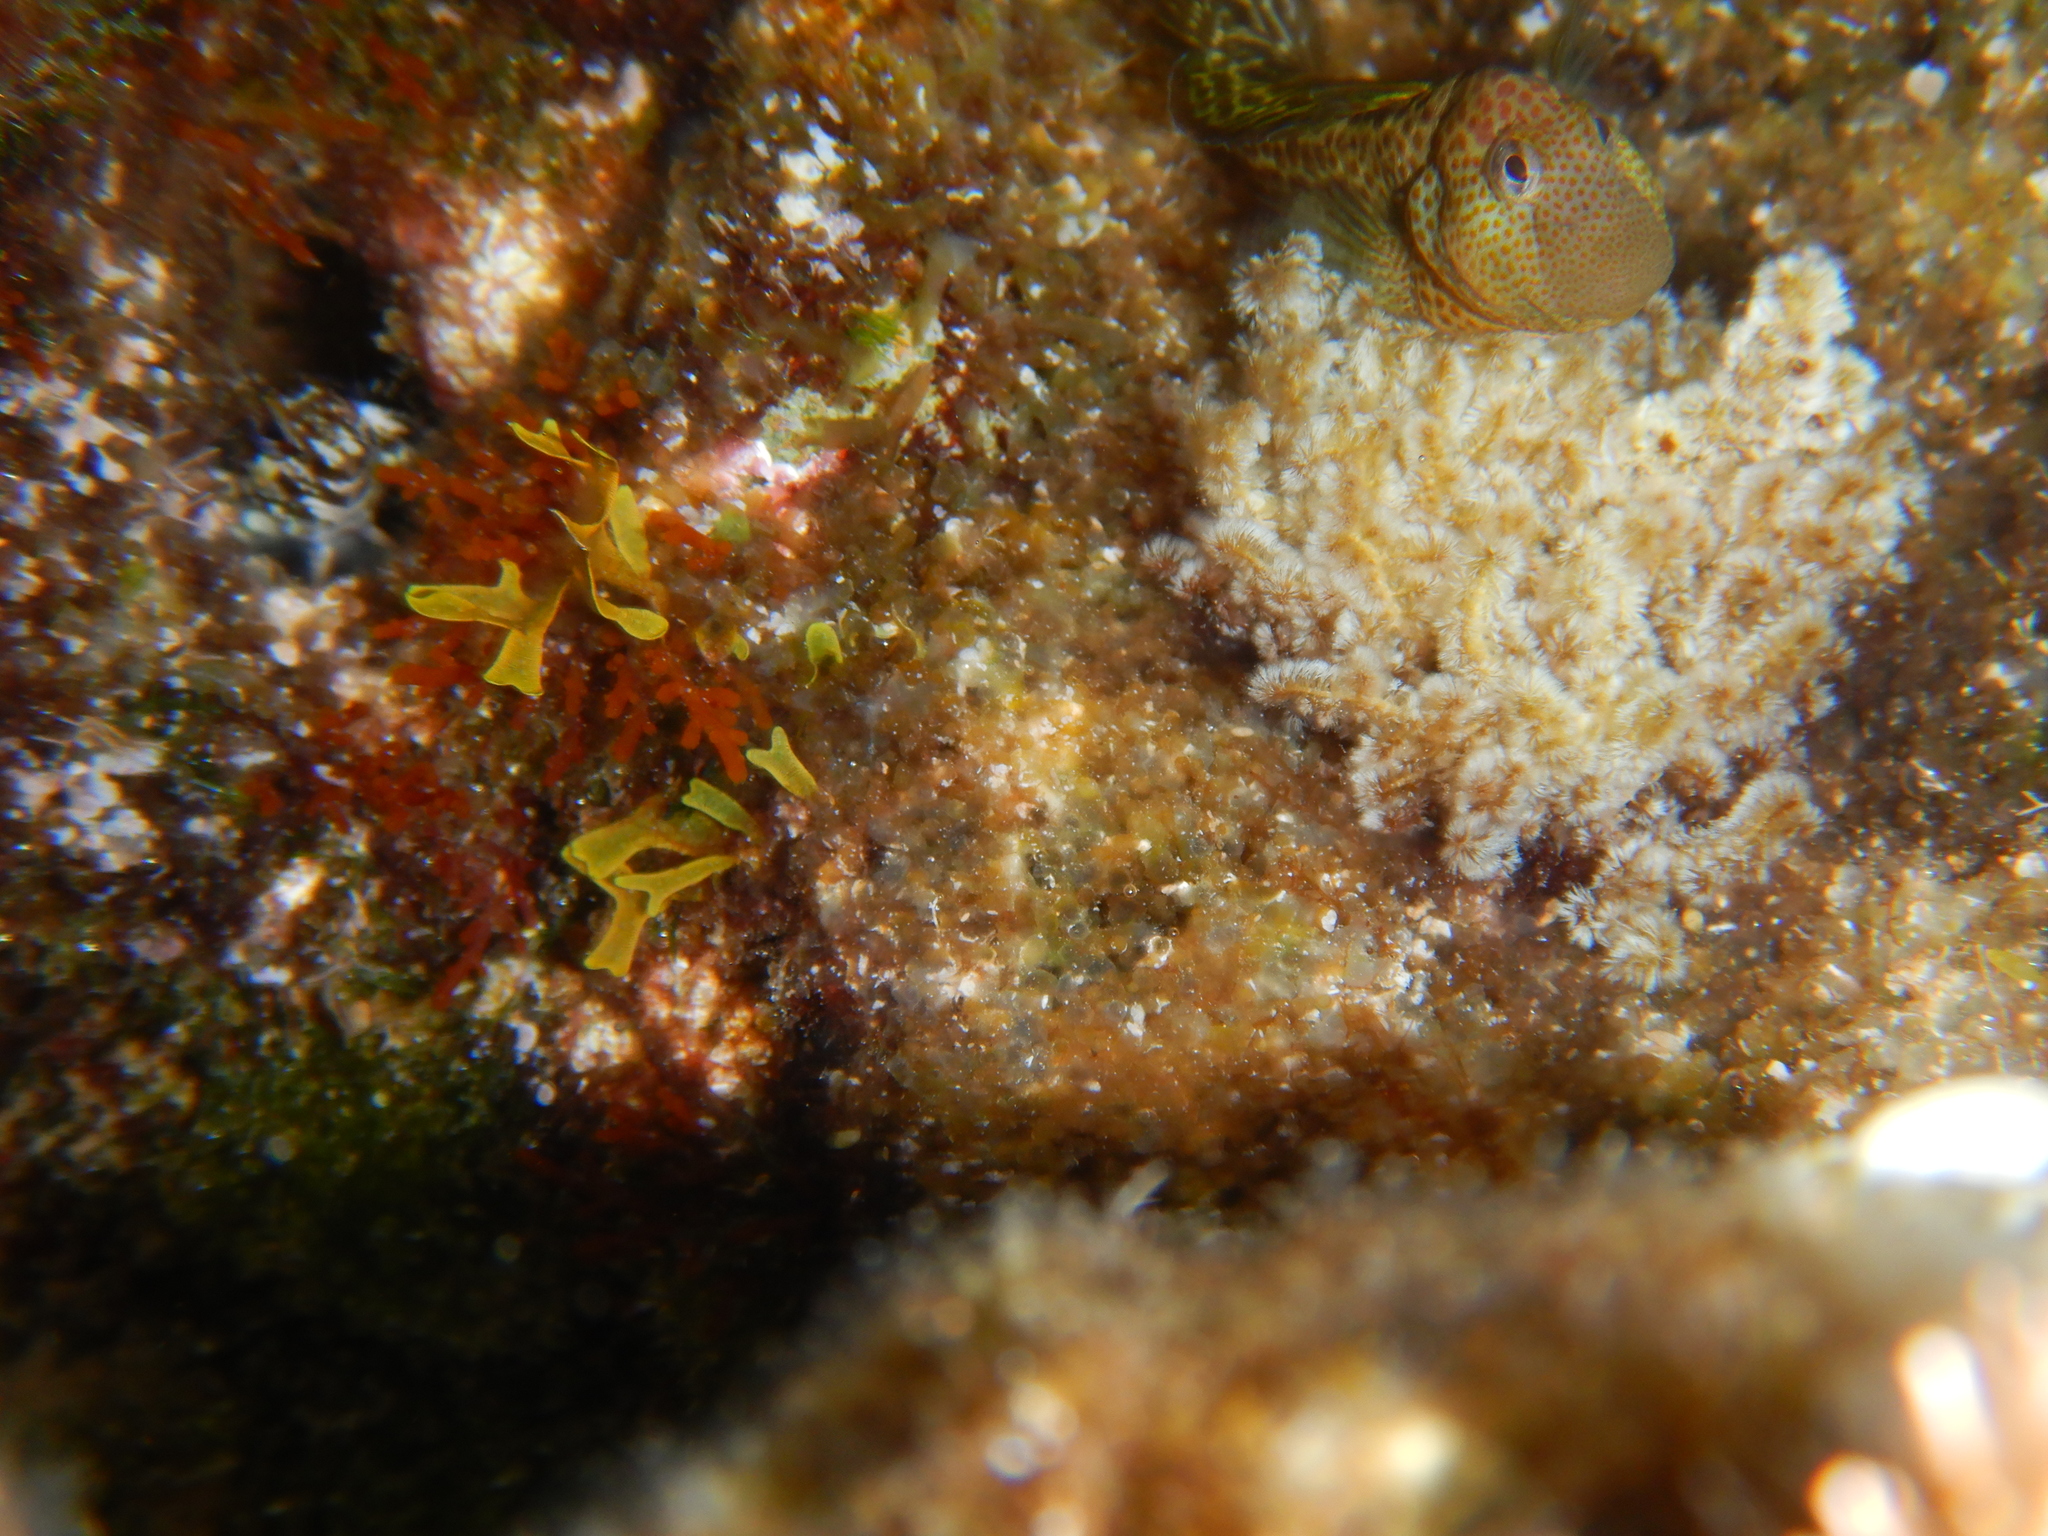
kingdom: Animalia
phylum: Chordata
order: Perciformes
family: Blenniidae
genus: Microlipophrys
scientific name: Microlipophrys canevae
